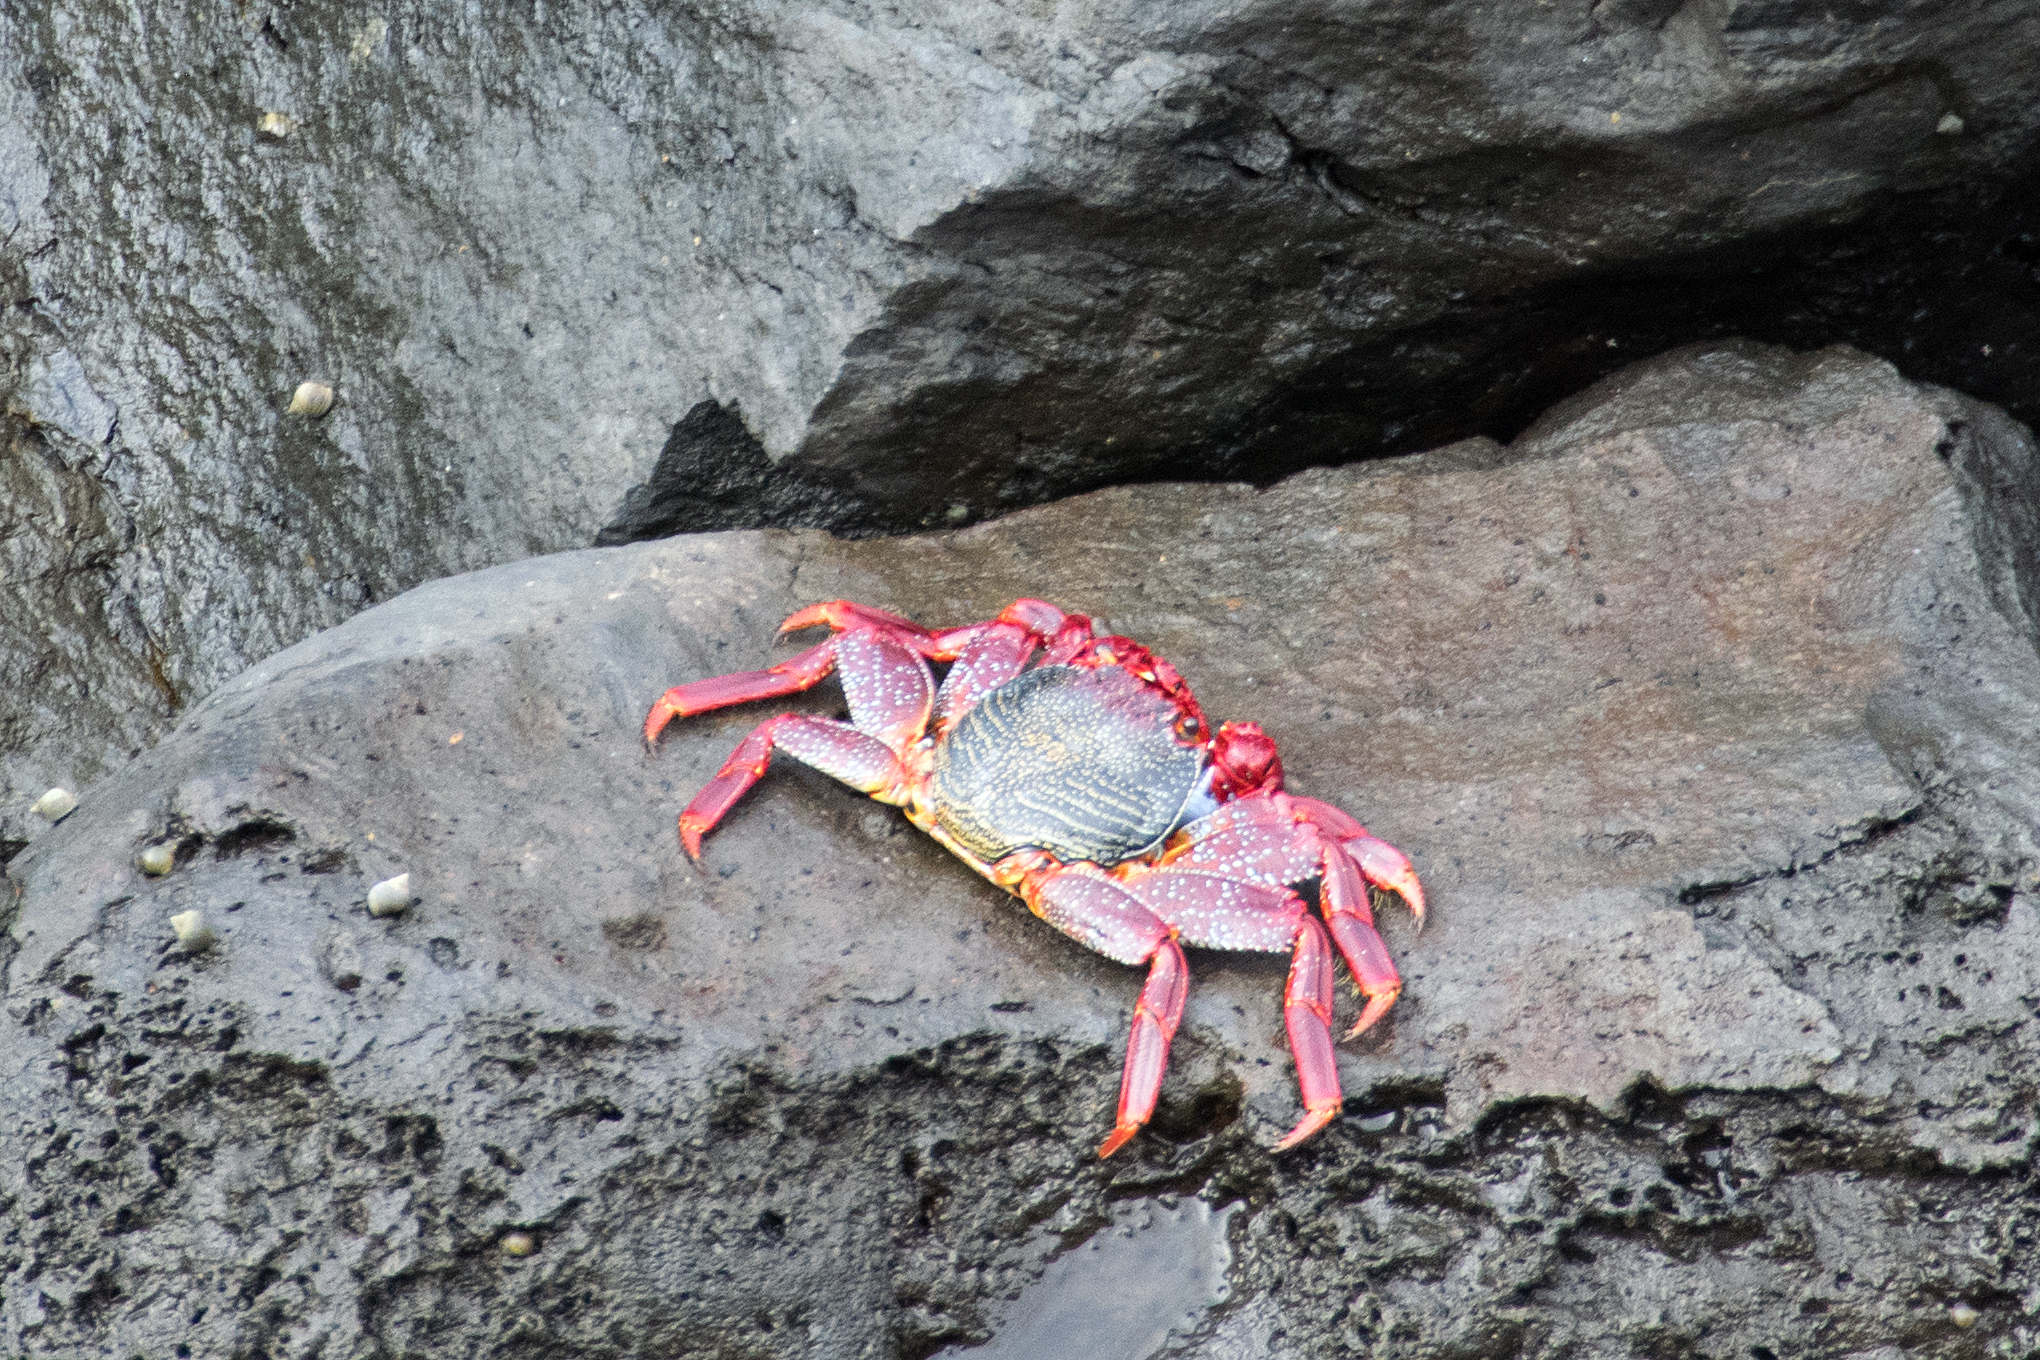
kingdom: Animalia
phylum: Arthropoda
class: Malacostraca
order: Decapoda
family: Grapsidae
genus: Grapsus
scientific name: Grapsus adscensionis
